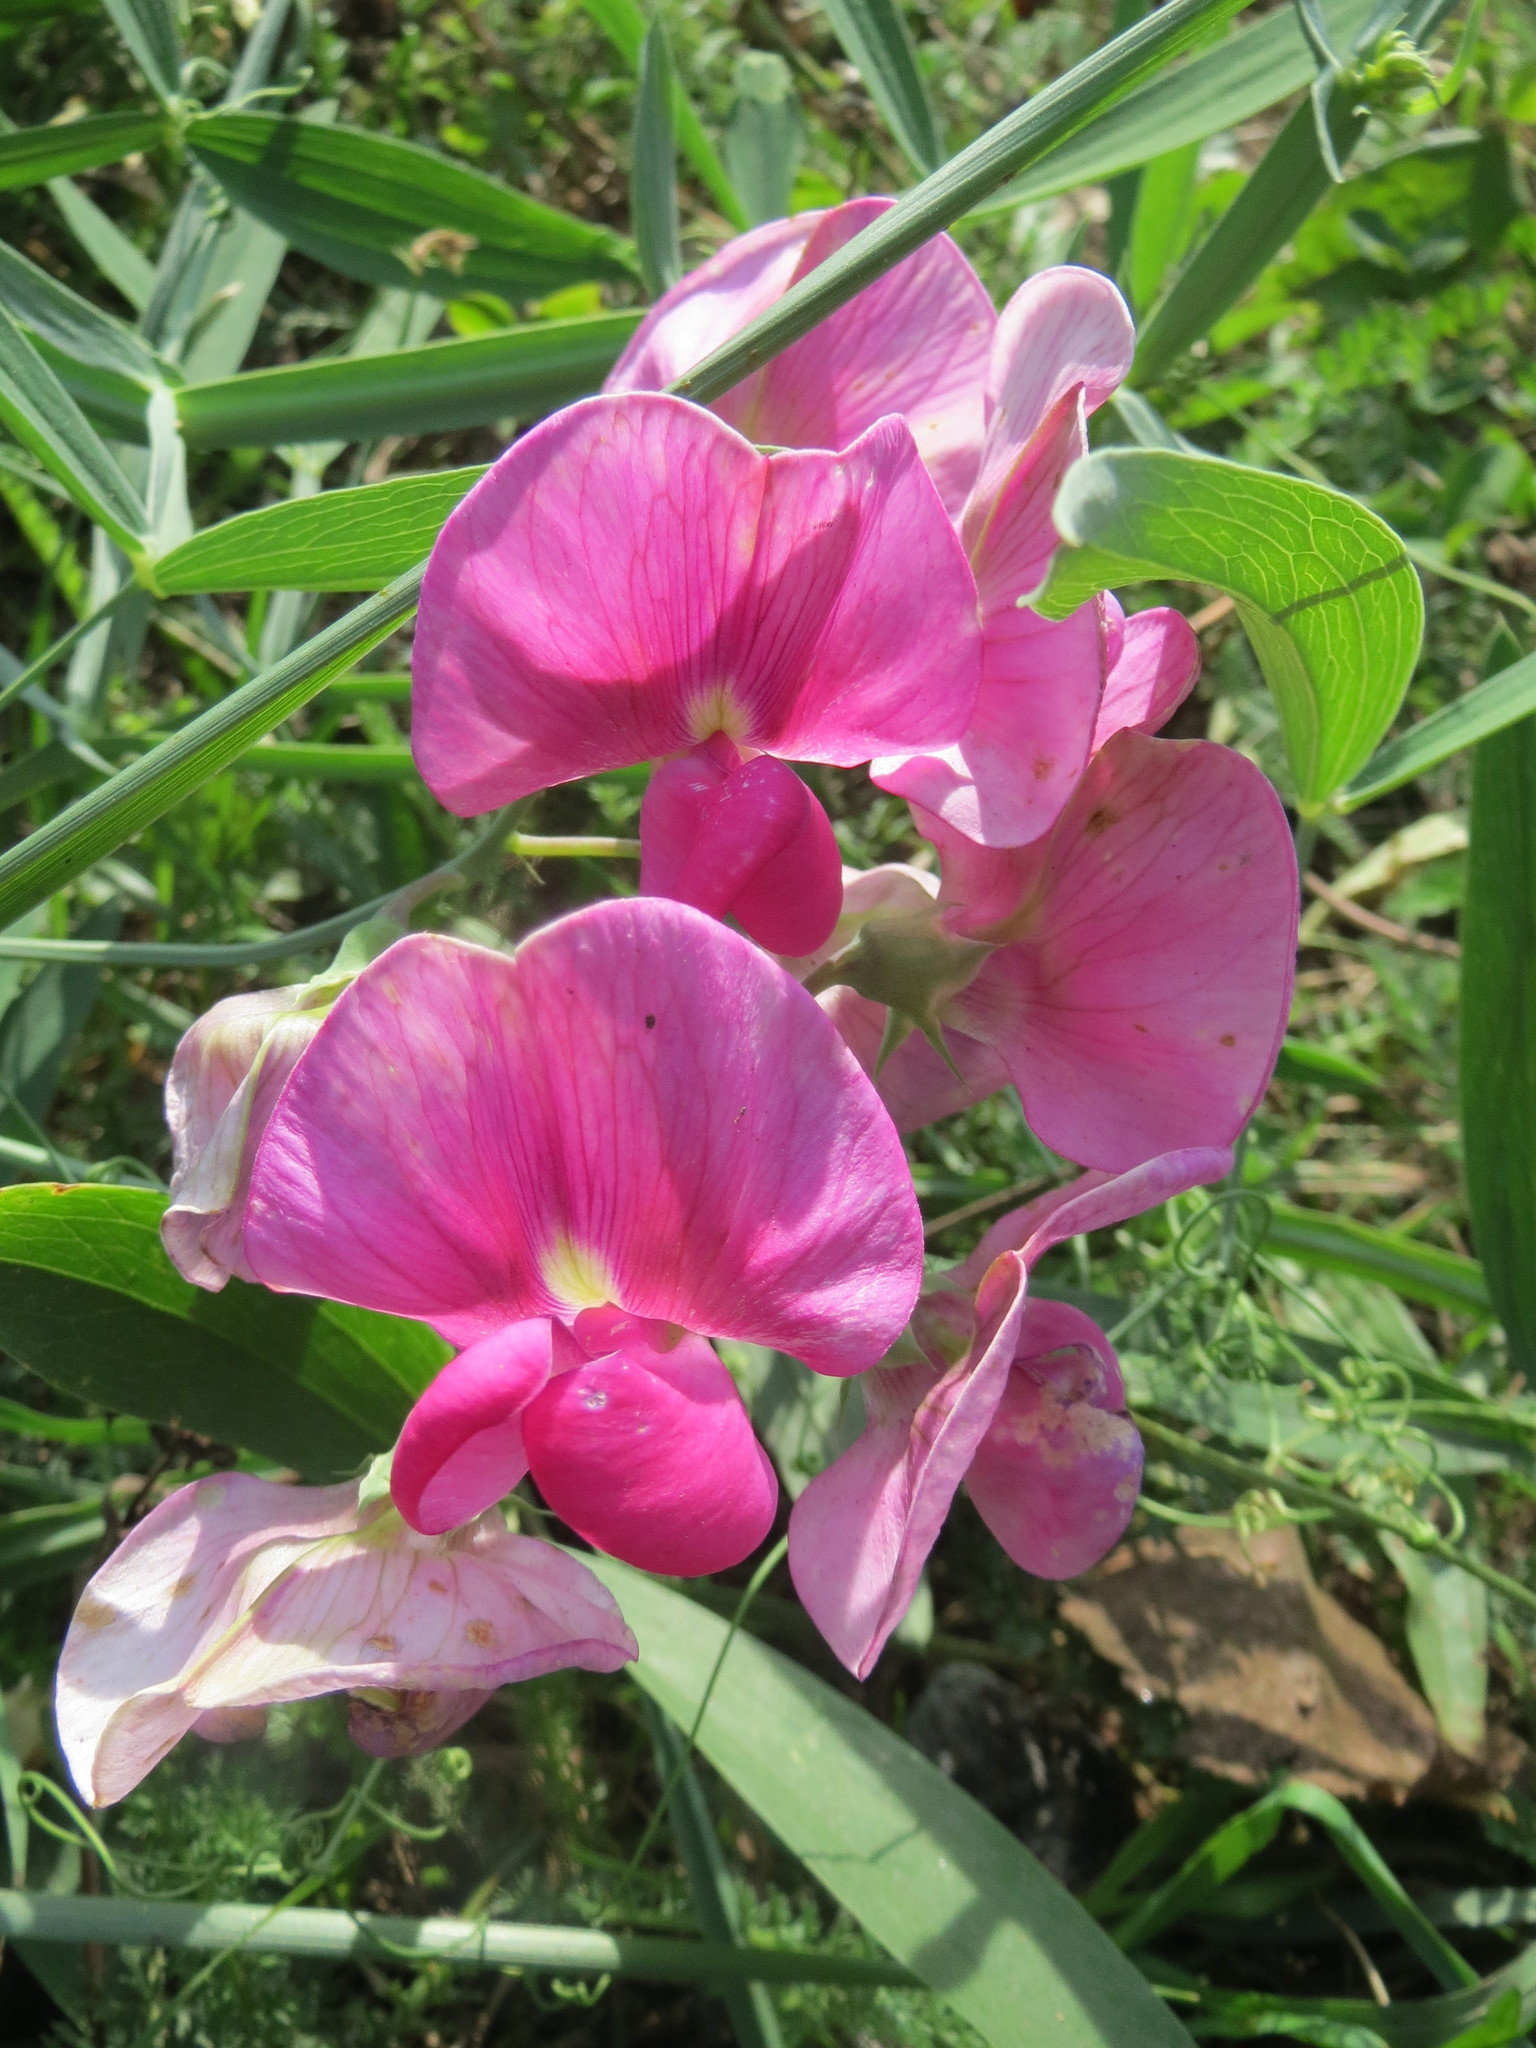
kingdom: Plantae
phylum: Tracheophyta
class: Magnoliopsida
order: Fabales
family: Fabaceae
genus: Lathyrus
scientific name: Lathyrus latifolius
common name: Perennial pea
